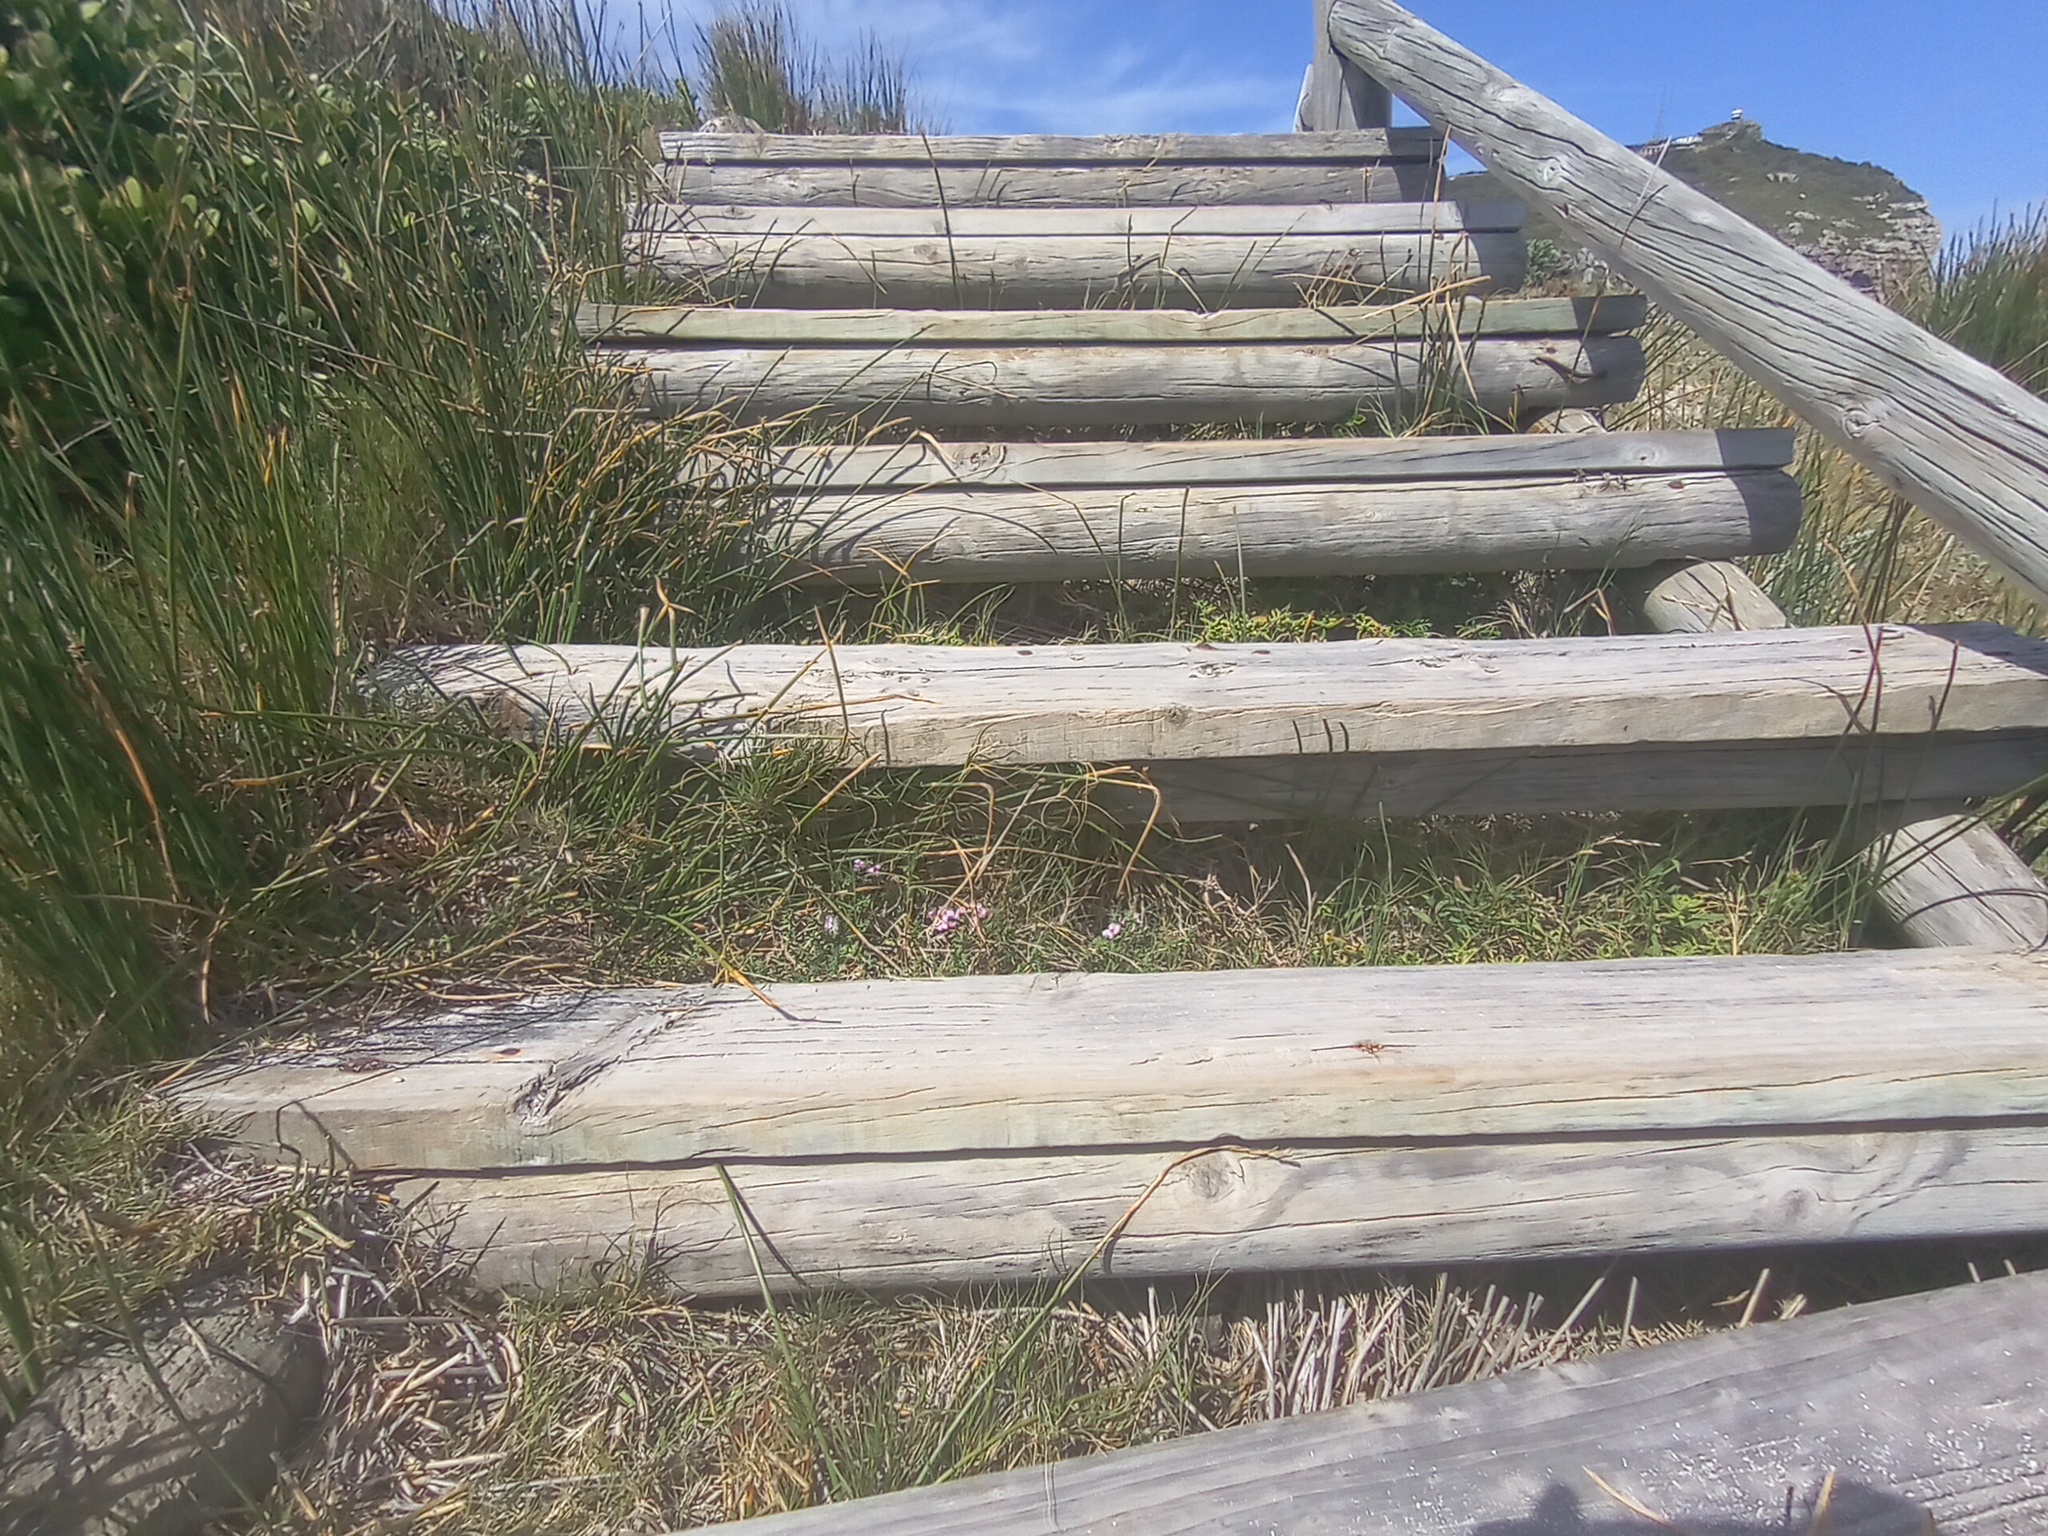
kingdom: Plantae
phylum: Tracheophyta
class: Magnoliopsida
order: Caryophyllales
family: Frankeniaceae
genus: Frankenia
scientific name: Frankenia repens
